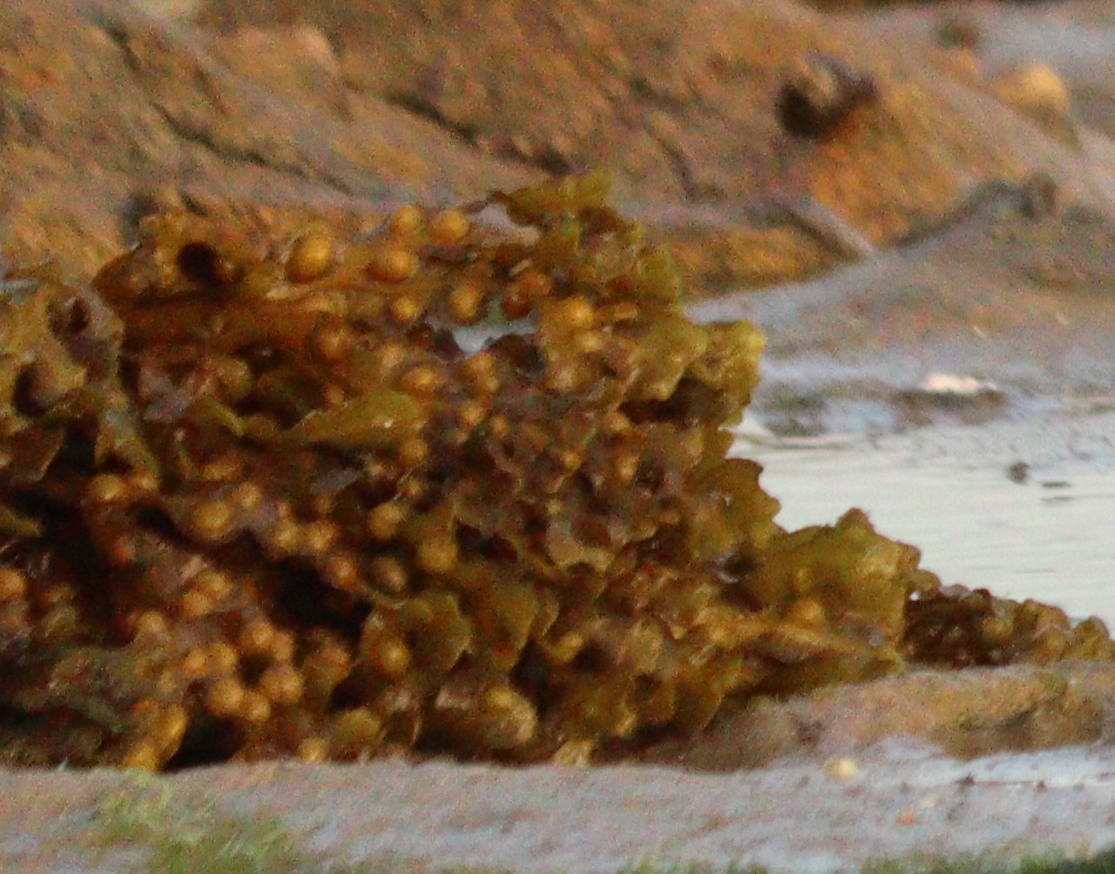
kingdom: Chromista
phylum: Ochrophyta
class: Phaeophyceae
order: Fucales
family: Fucaceae
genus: Fucus
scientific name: Fucus vesiculosus
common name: Bladder wrack
